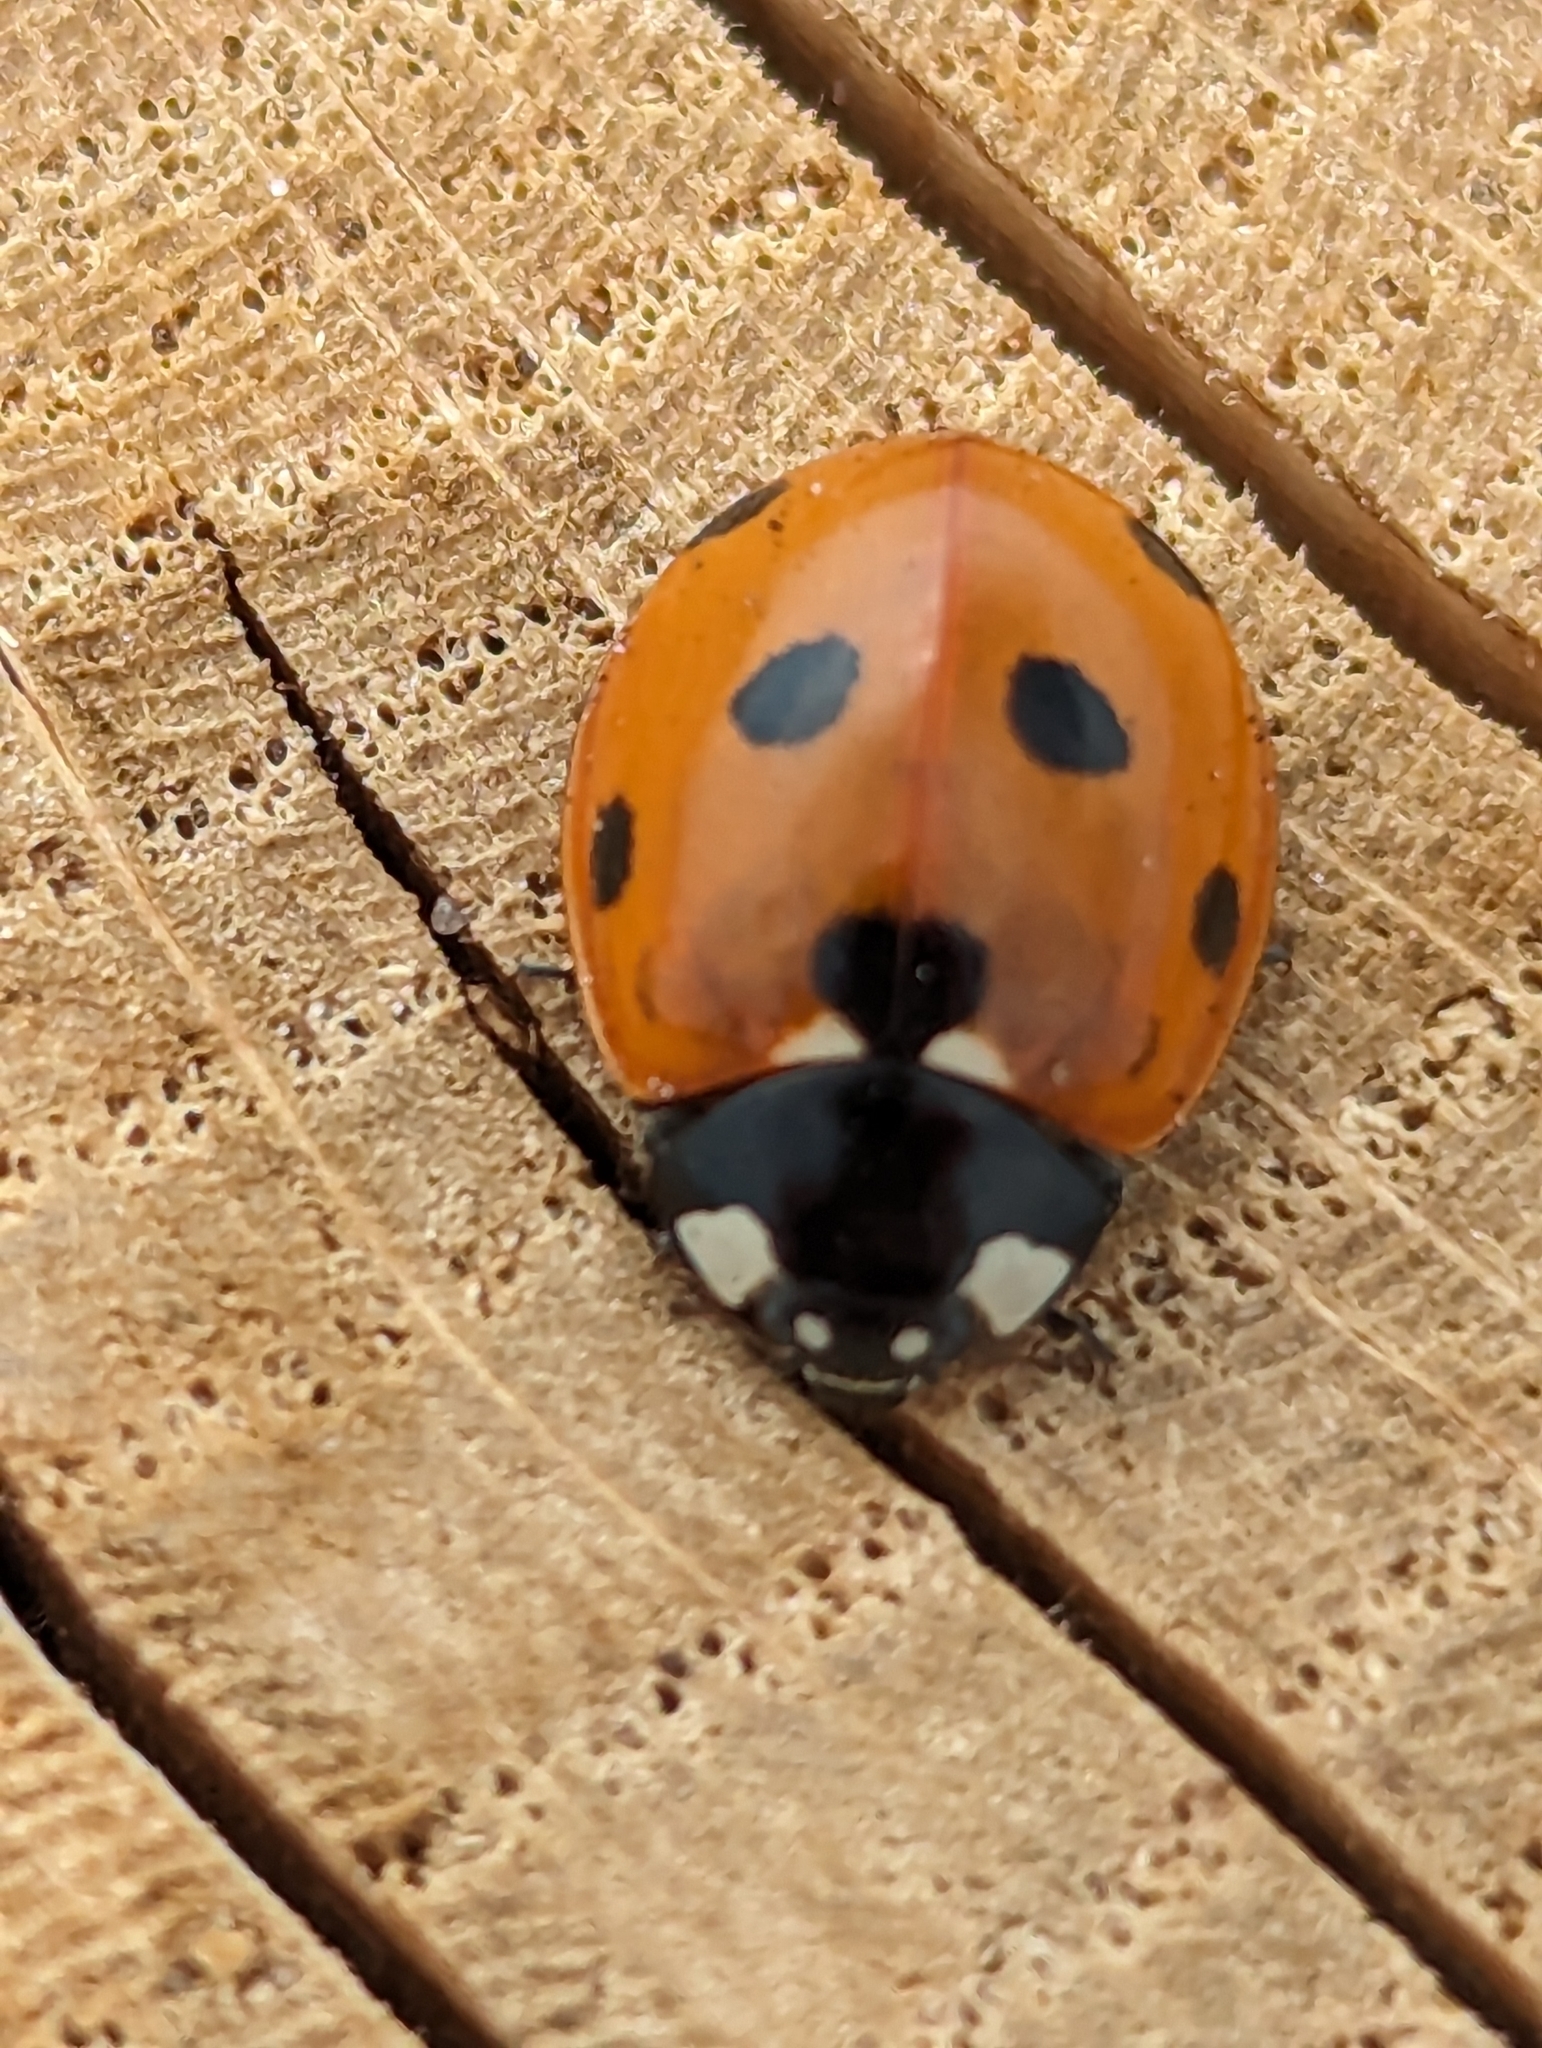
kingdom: Animalia
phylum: Arthropoda
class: Insecta
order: Coleoptera
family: Coccinellidae
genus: Coccinella
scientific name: Coccinella septempunctata
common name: Sevenspotted lady beetle
